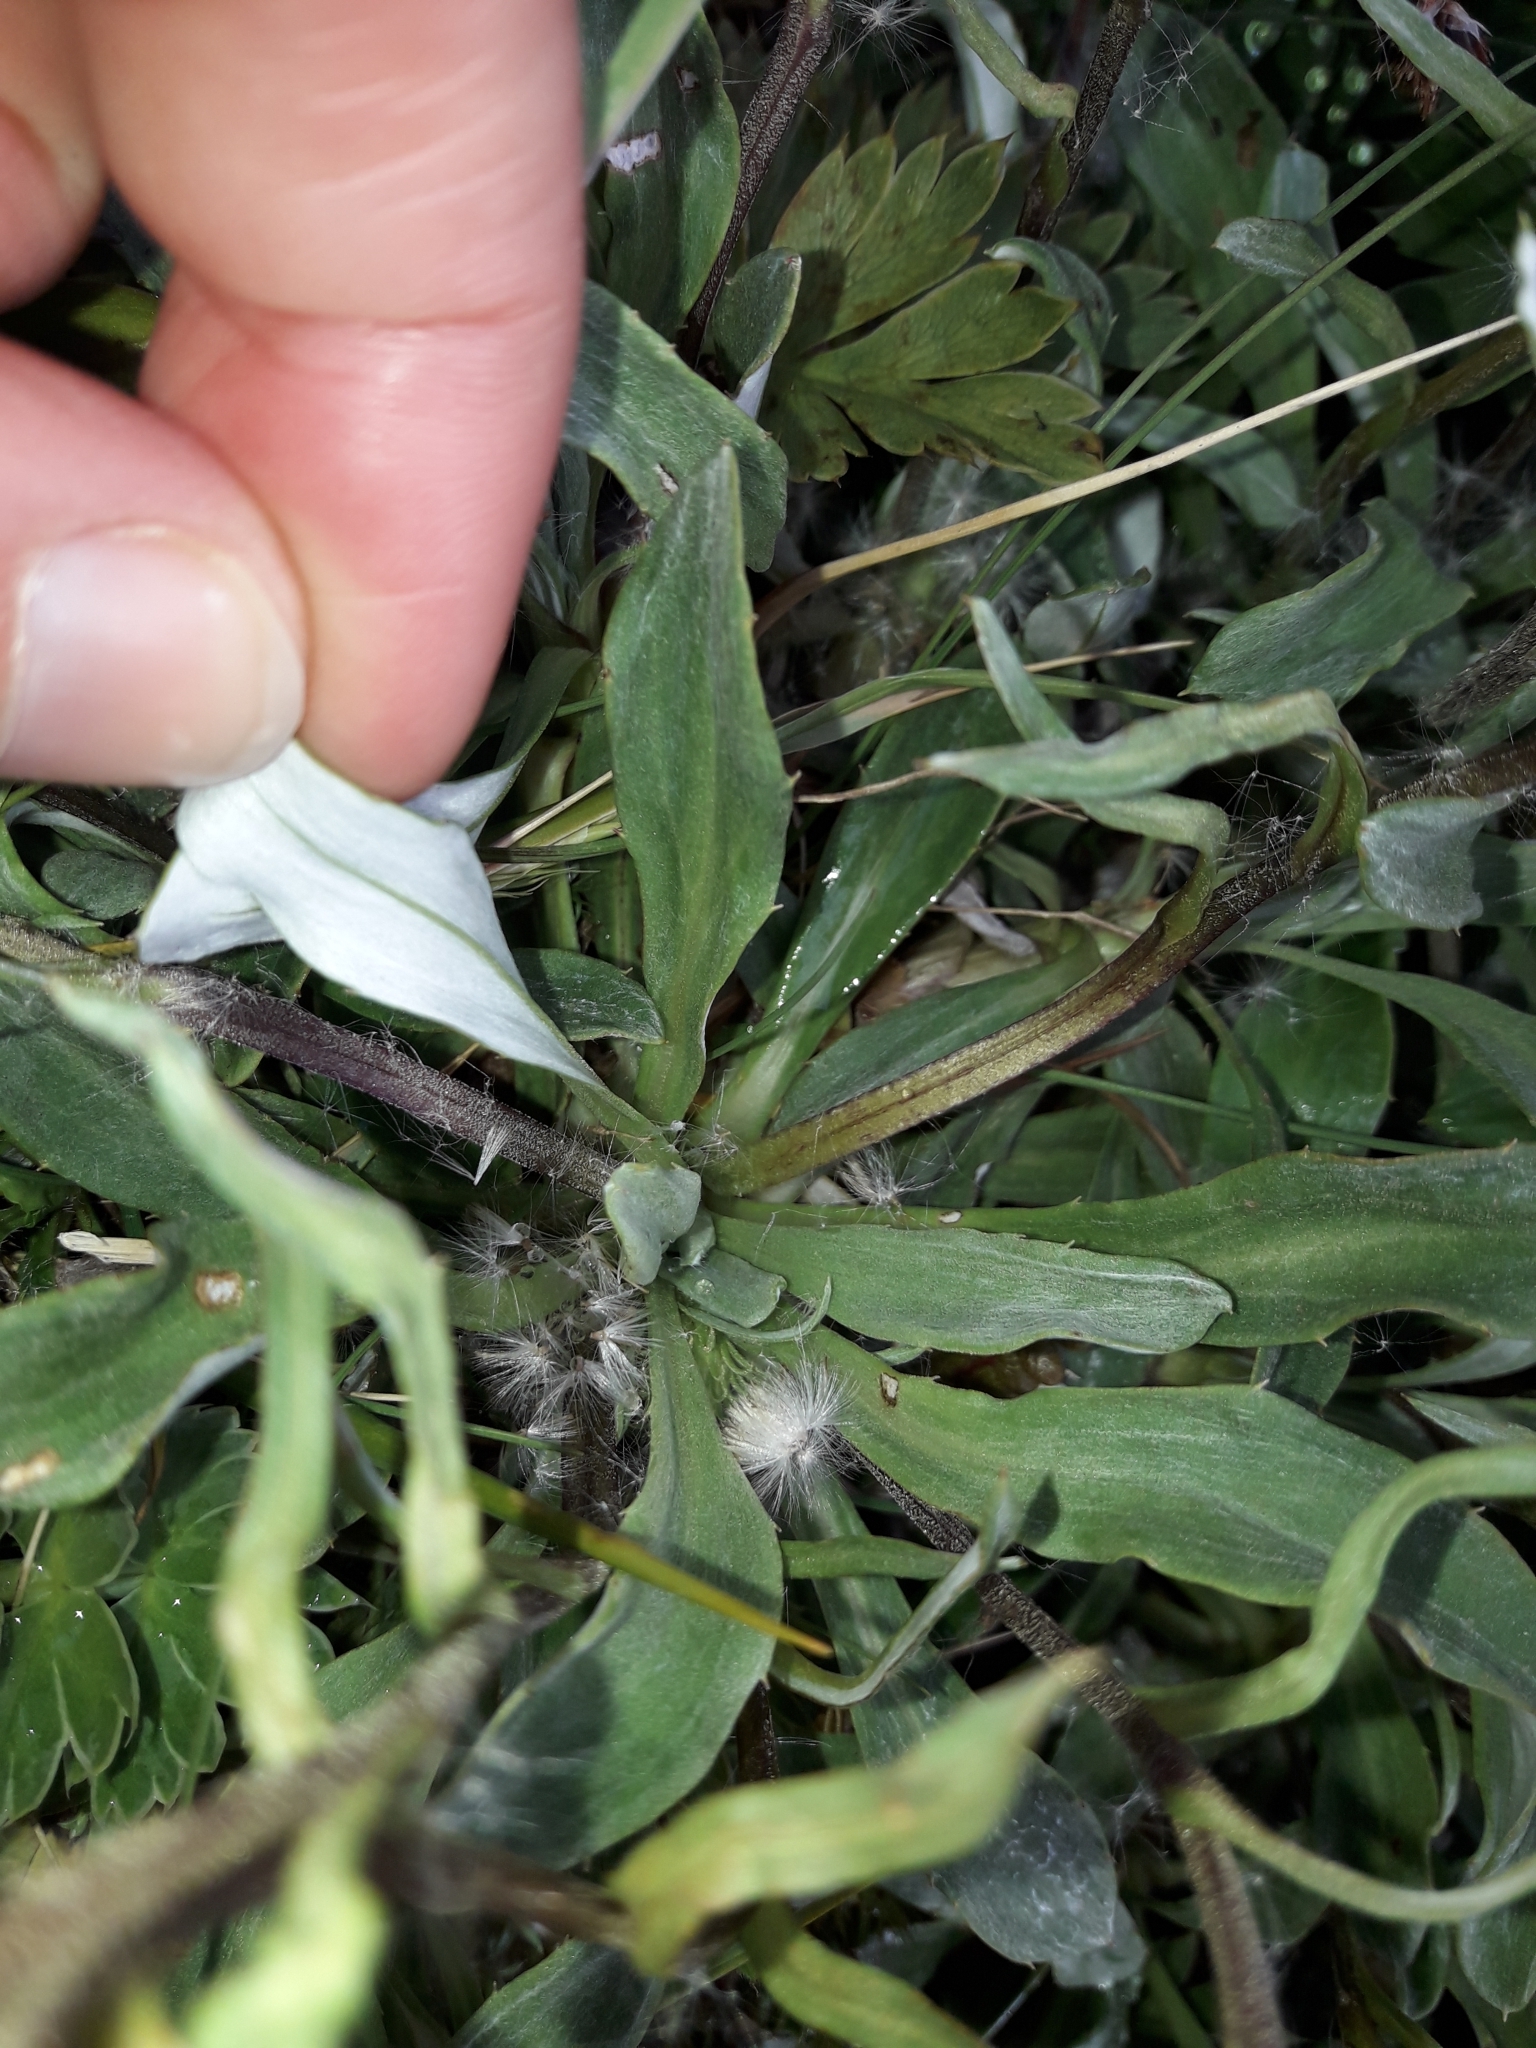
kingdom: Plantae
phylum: Tracheophyta
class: Magnoliopsida
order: Asterales
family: Asteraceae
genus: Celmisia
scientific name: Celmisia durietzii
